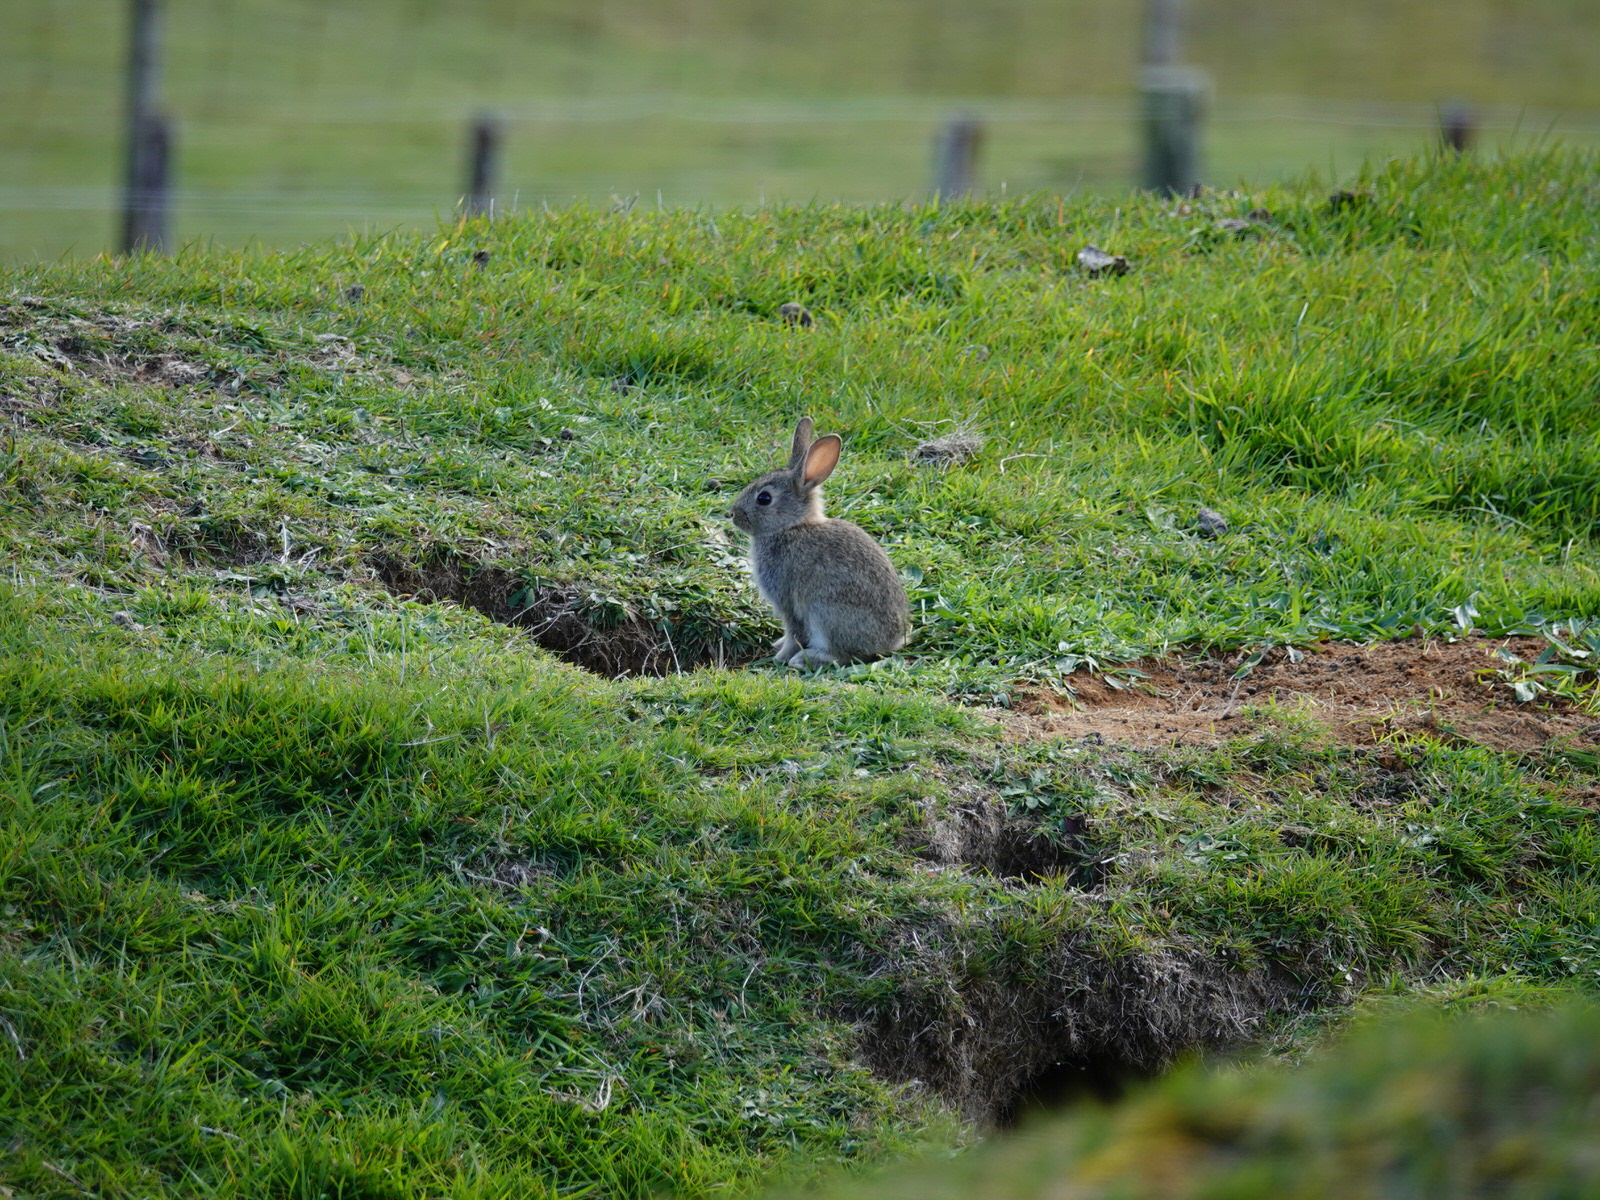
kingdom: Animalia
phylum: Chordata
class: Mammalia
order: Lagomorpha
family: Leporidae
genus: Oryctolagus
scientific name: Oryctolagus cuniculus
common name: European rabbit
